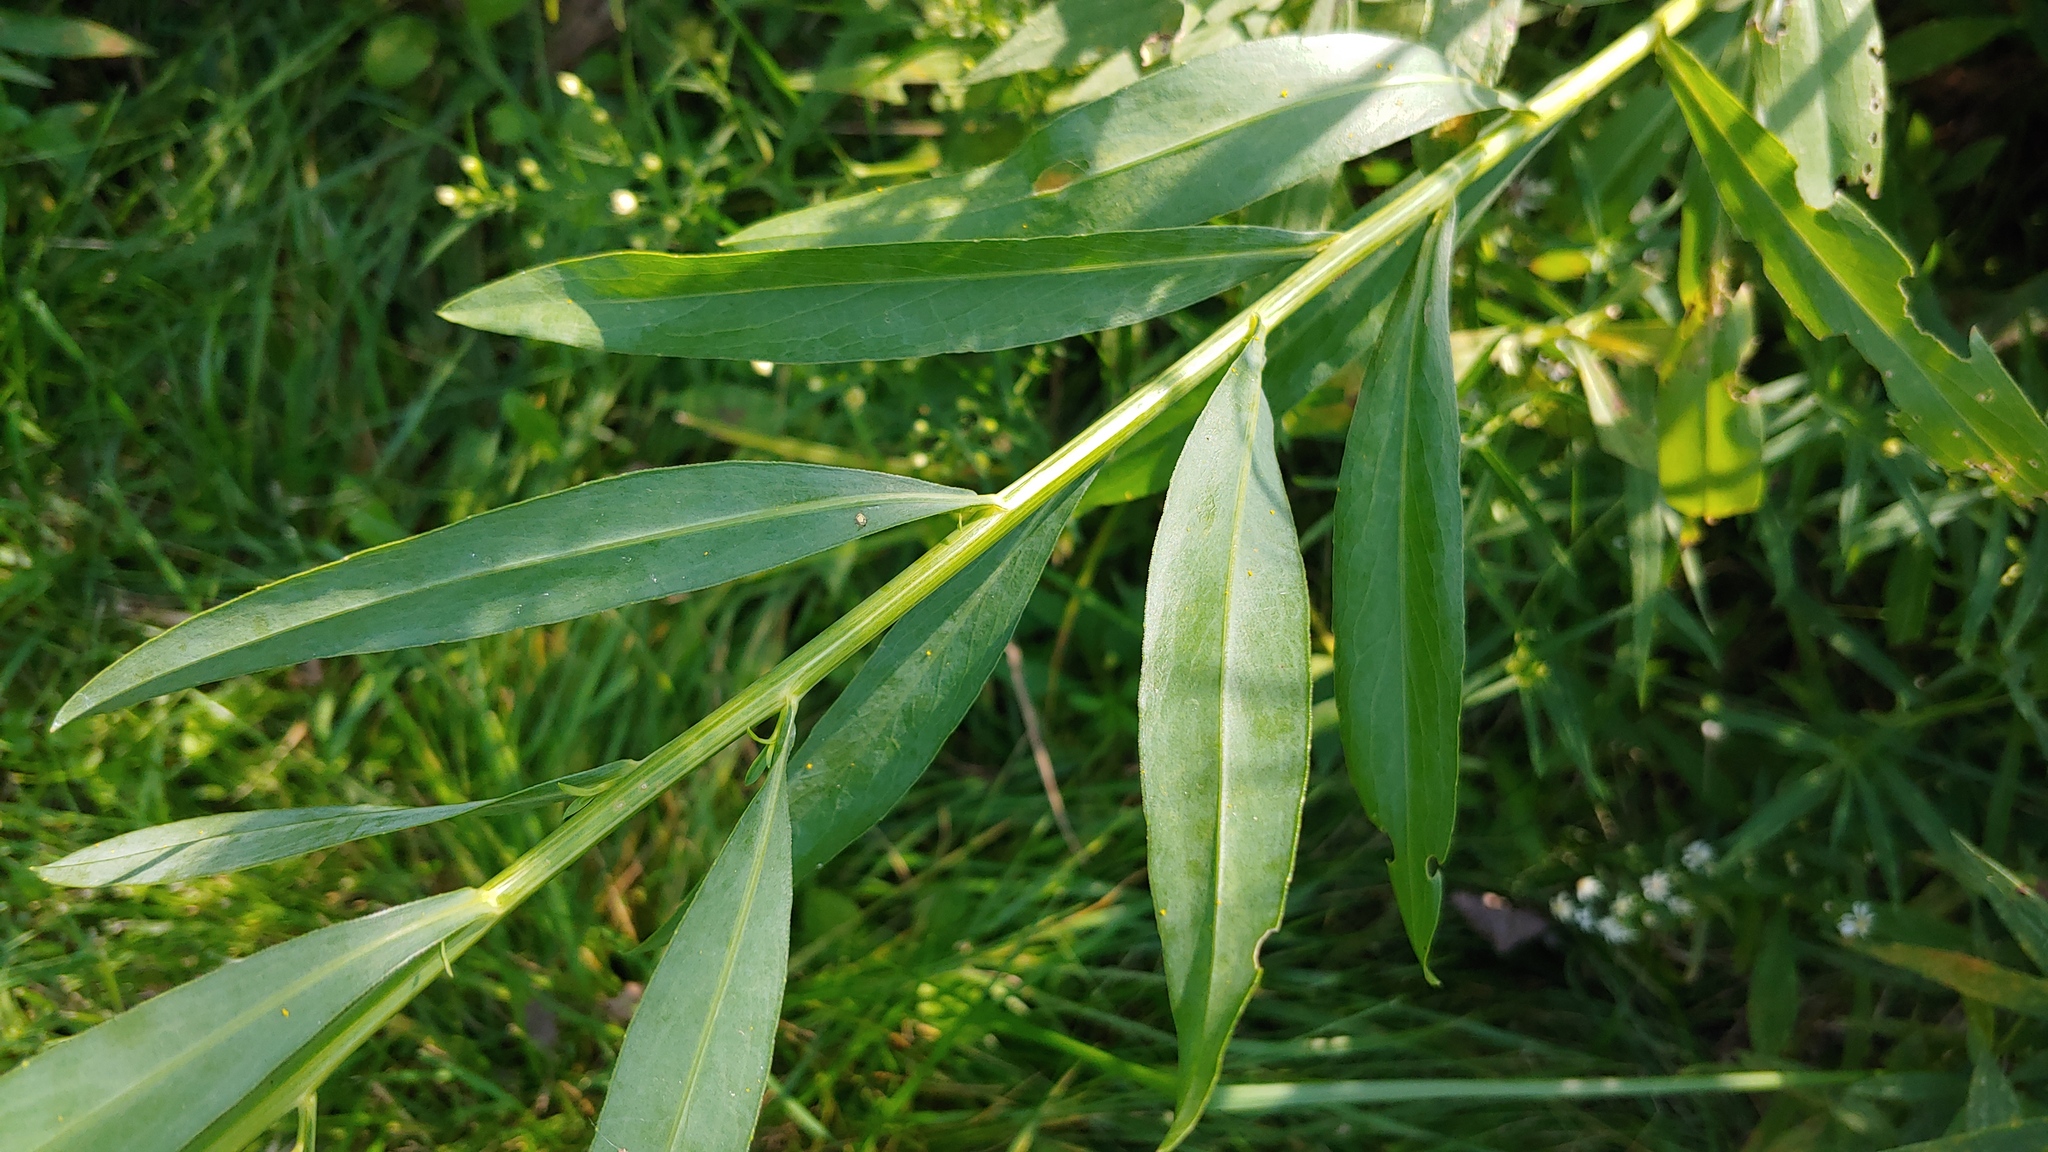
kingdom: Plantae
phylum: Tracheophyta
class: Magnoliopsida
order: Asterales
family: Asteraceae
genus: Boltonia
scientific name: Boltonia asteroides
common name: False chamomile
